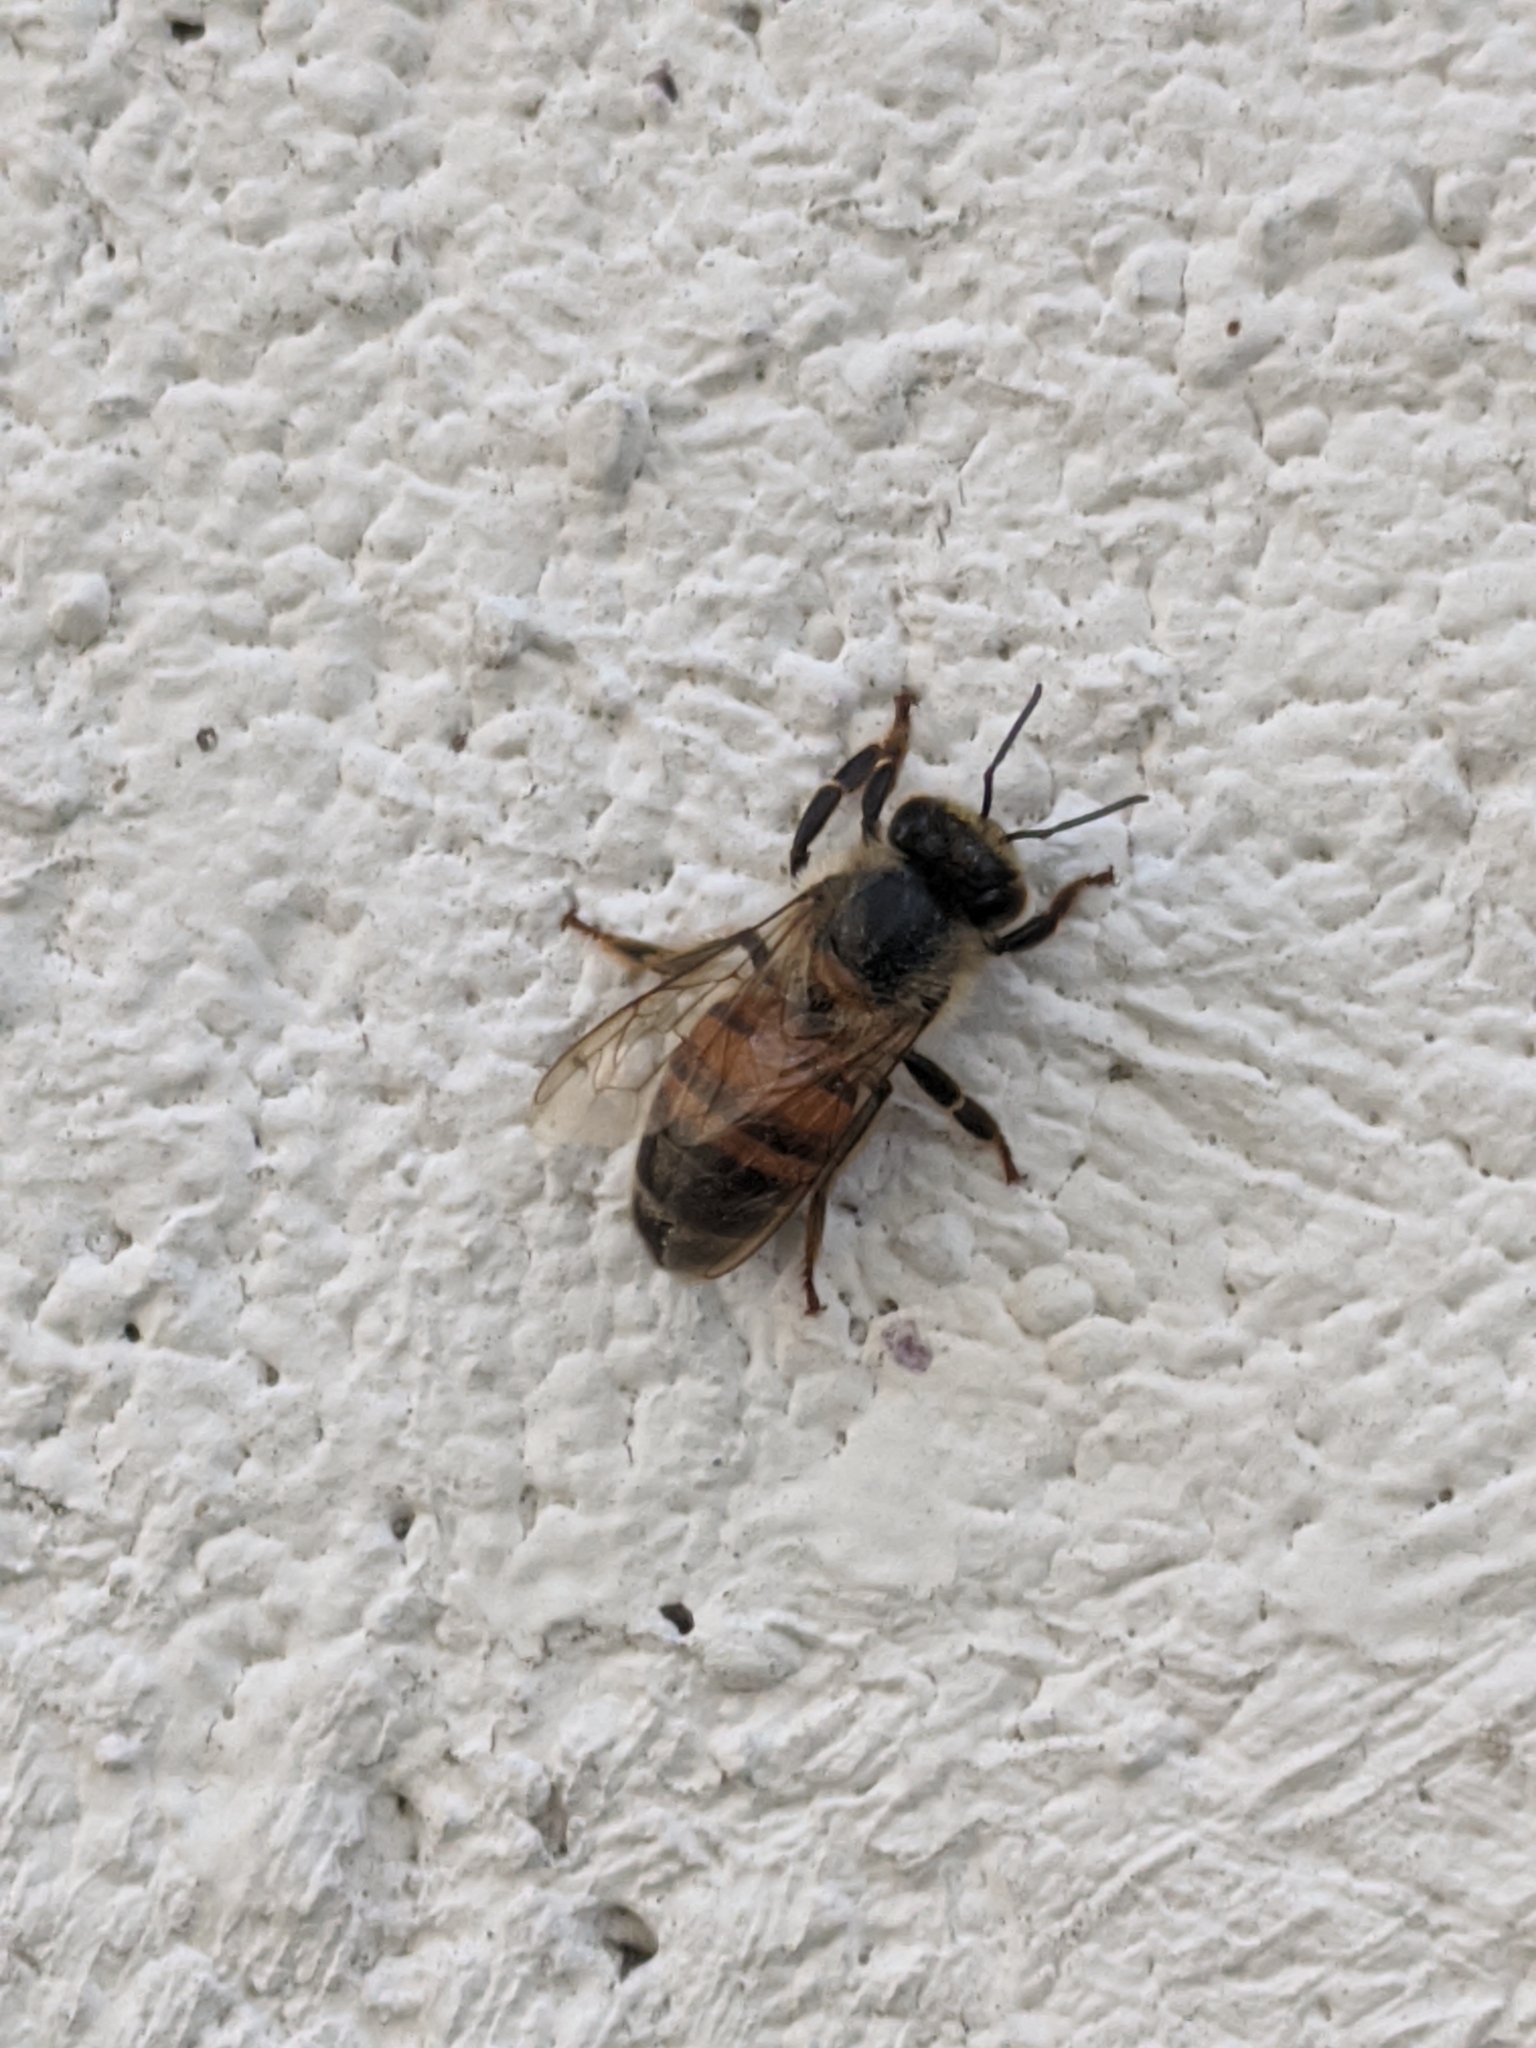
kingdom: Animalia
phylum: Arthropoda
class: Insecta
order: Hymenoptera
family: Apidae
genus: Apis
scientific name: Apis mellifera
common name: Honey bee
